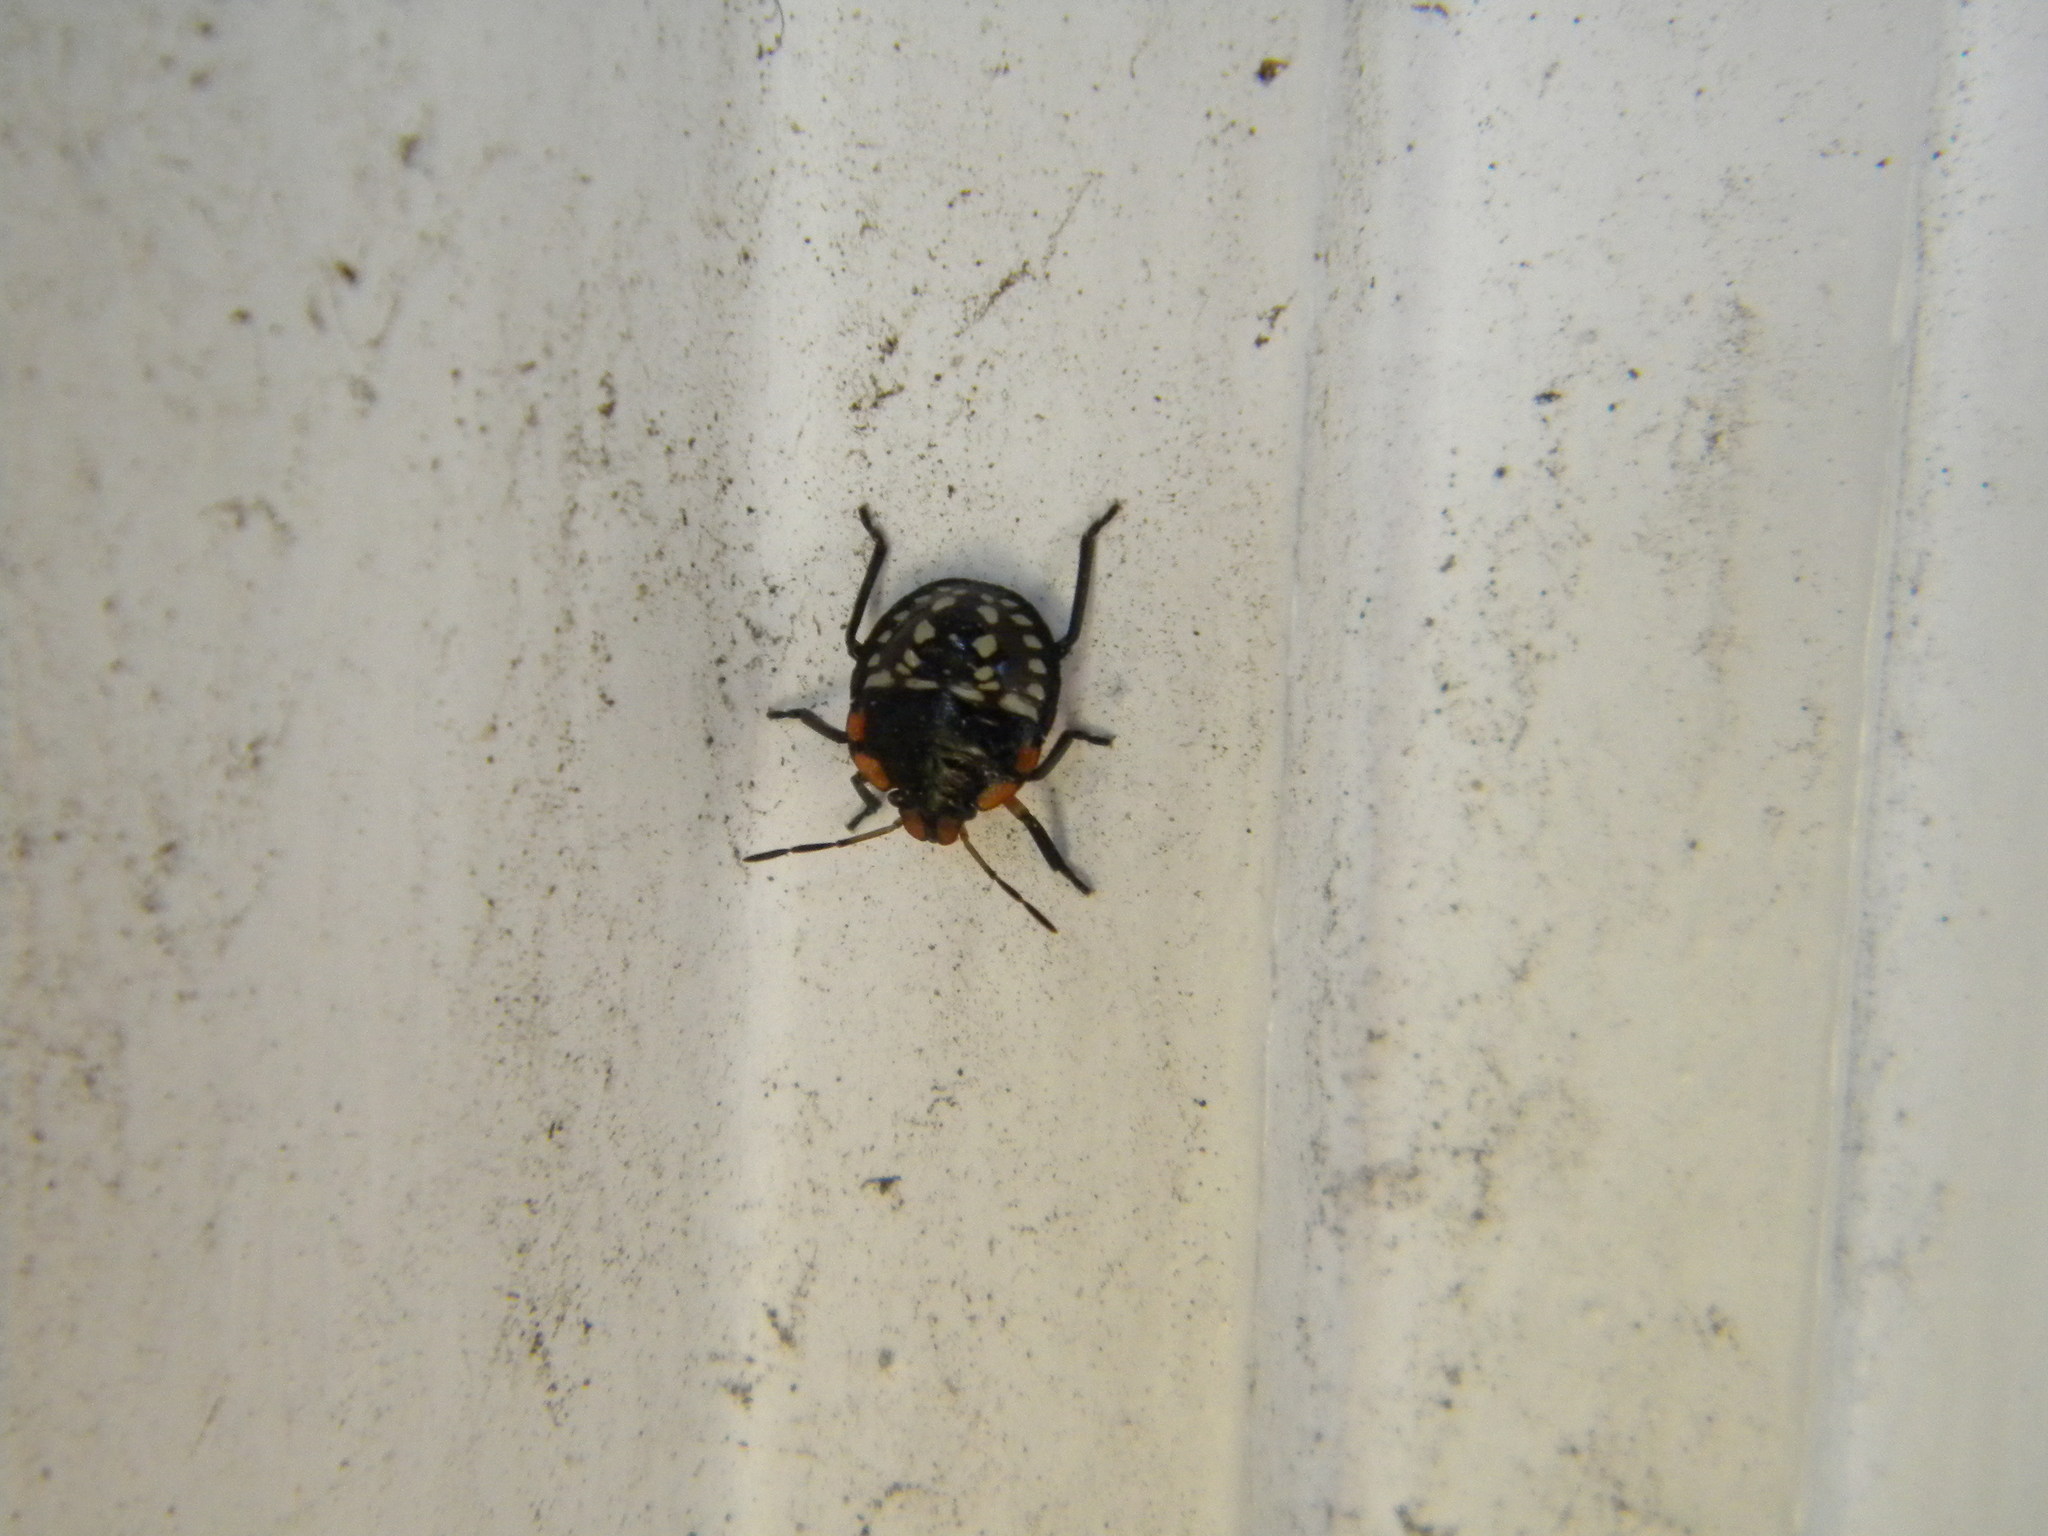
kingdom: Animalia
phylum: Arthropoda
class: Insecta
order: Hemiptera
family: Pentatomidae
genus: Nezara
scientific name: Nezara viridula
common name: Southern green stink bug
